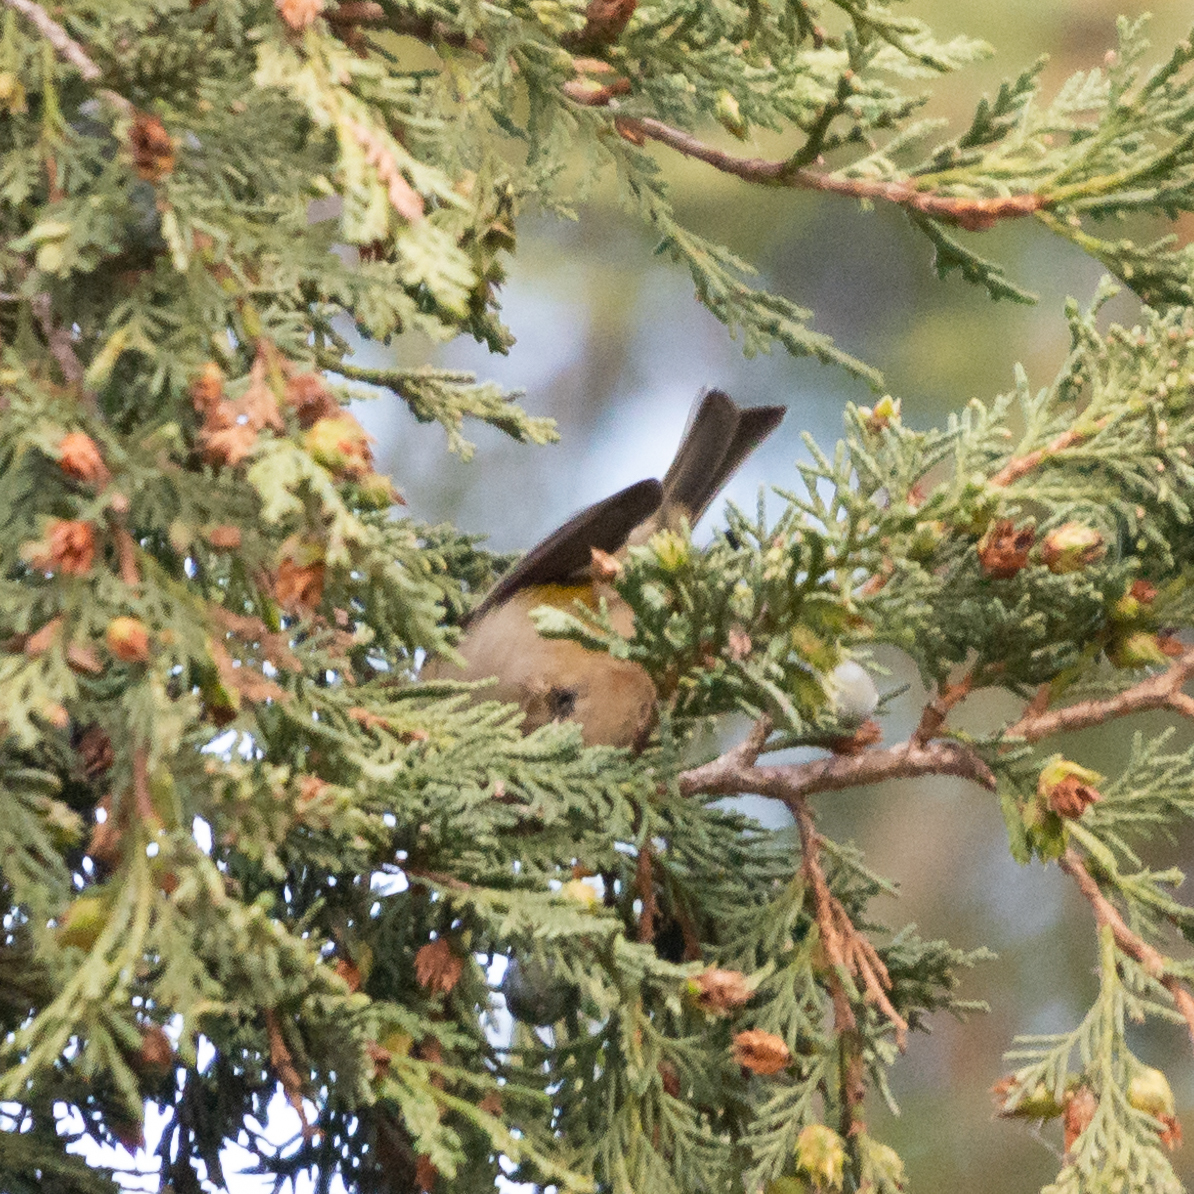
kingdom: Animalia
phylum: Chordata
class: Aves
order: Passeriformes
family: Regulidae
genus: Regulus
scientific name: Regulus ignicapilla
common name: Firecrest
